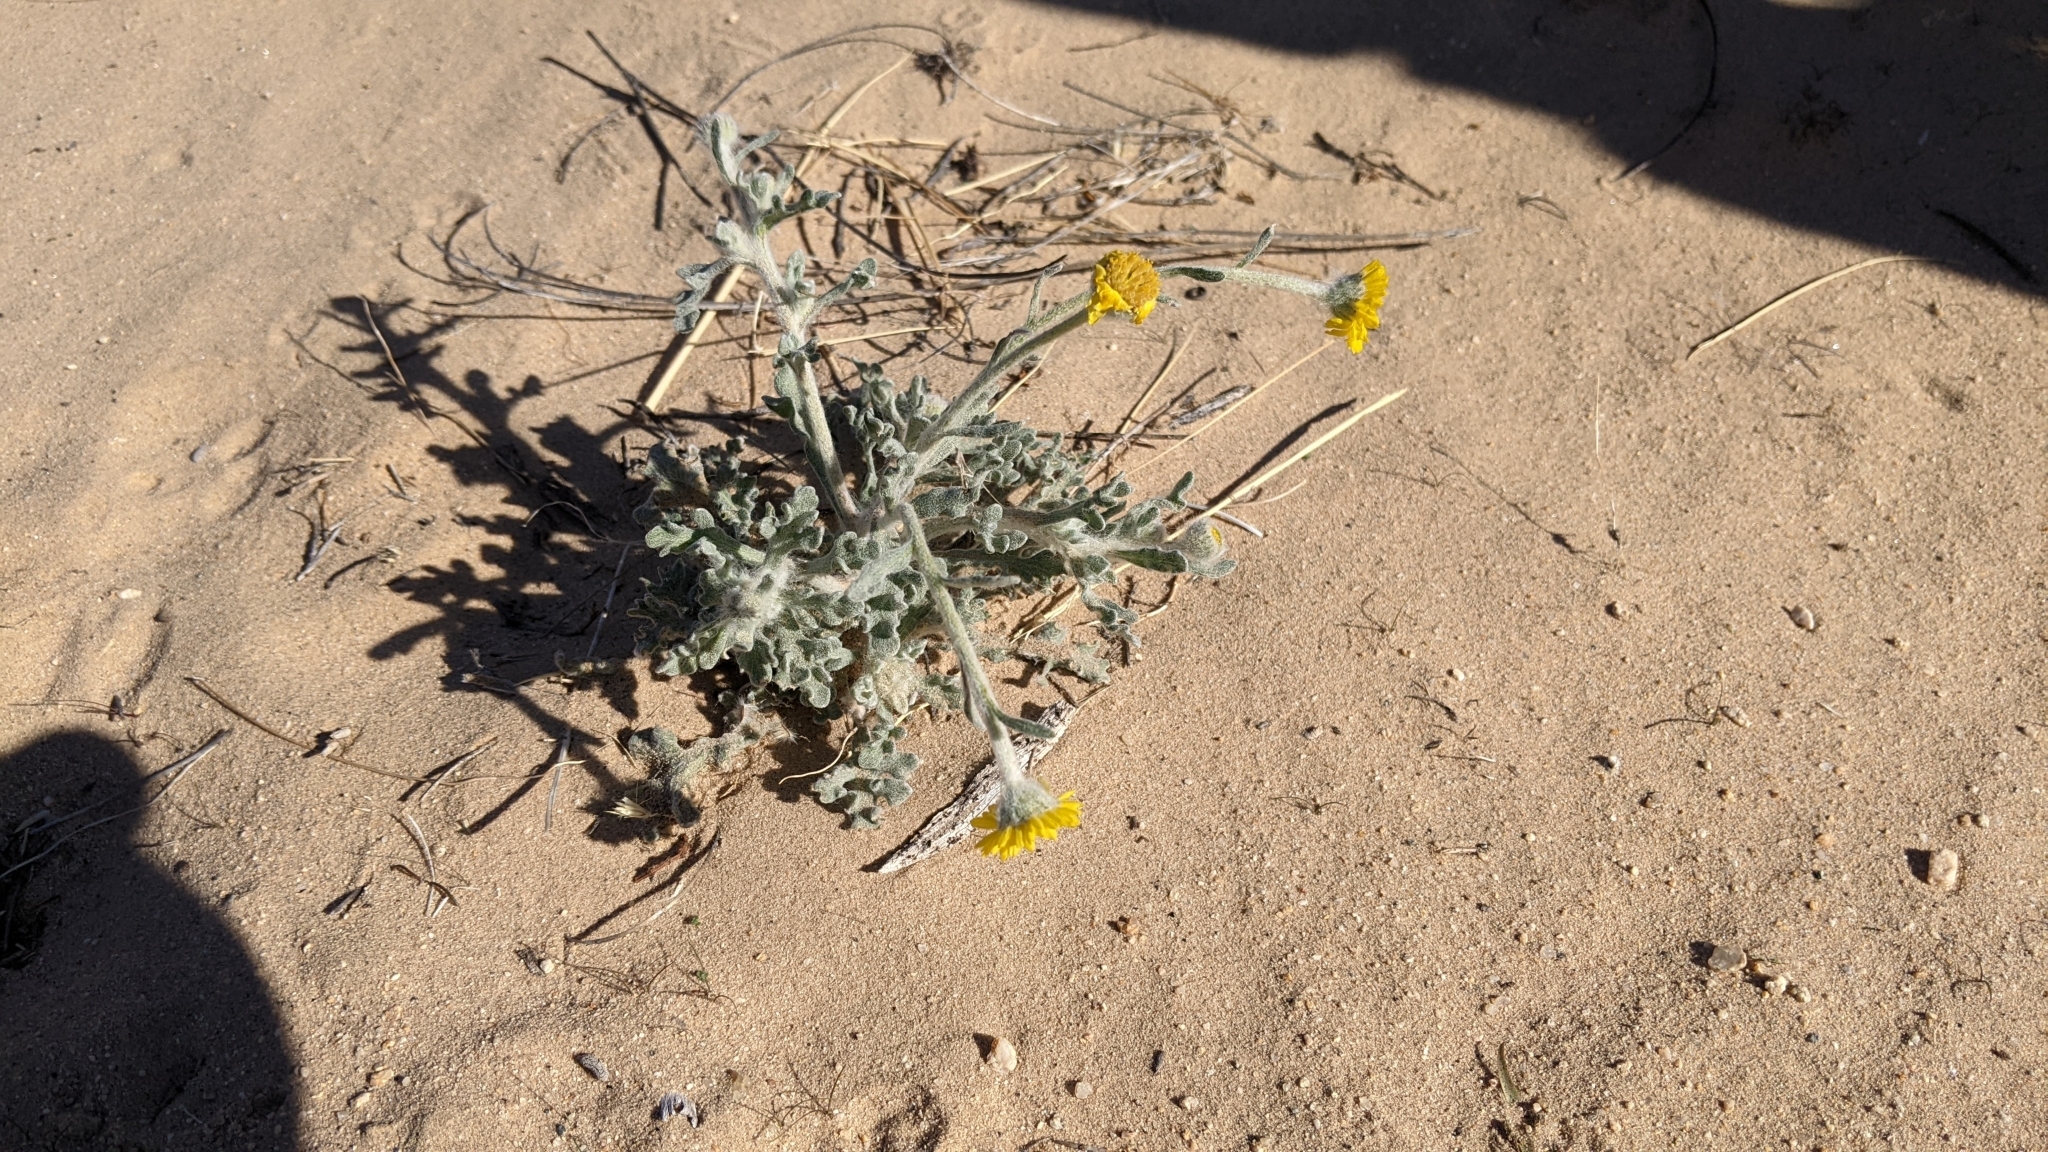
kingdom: Plantae
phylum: Tracheophyta
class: Magnoliopsida
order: Asterales
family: Asteraceae
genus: Baileya
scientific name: Baileya pleniradiata
